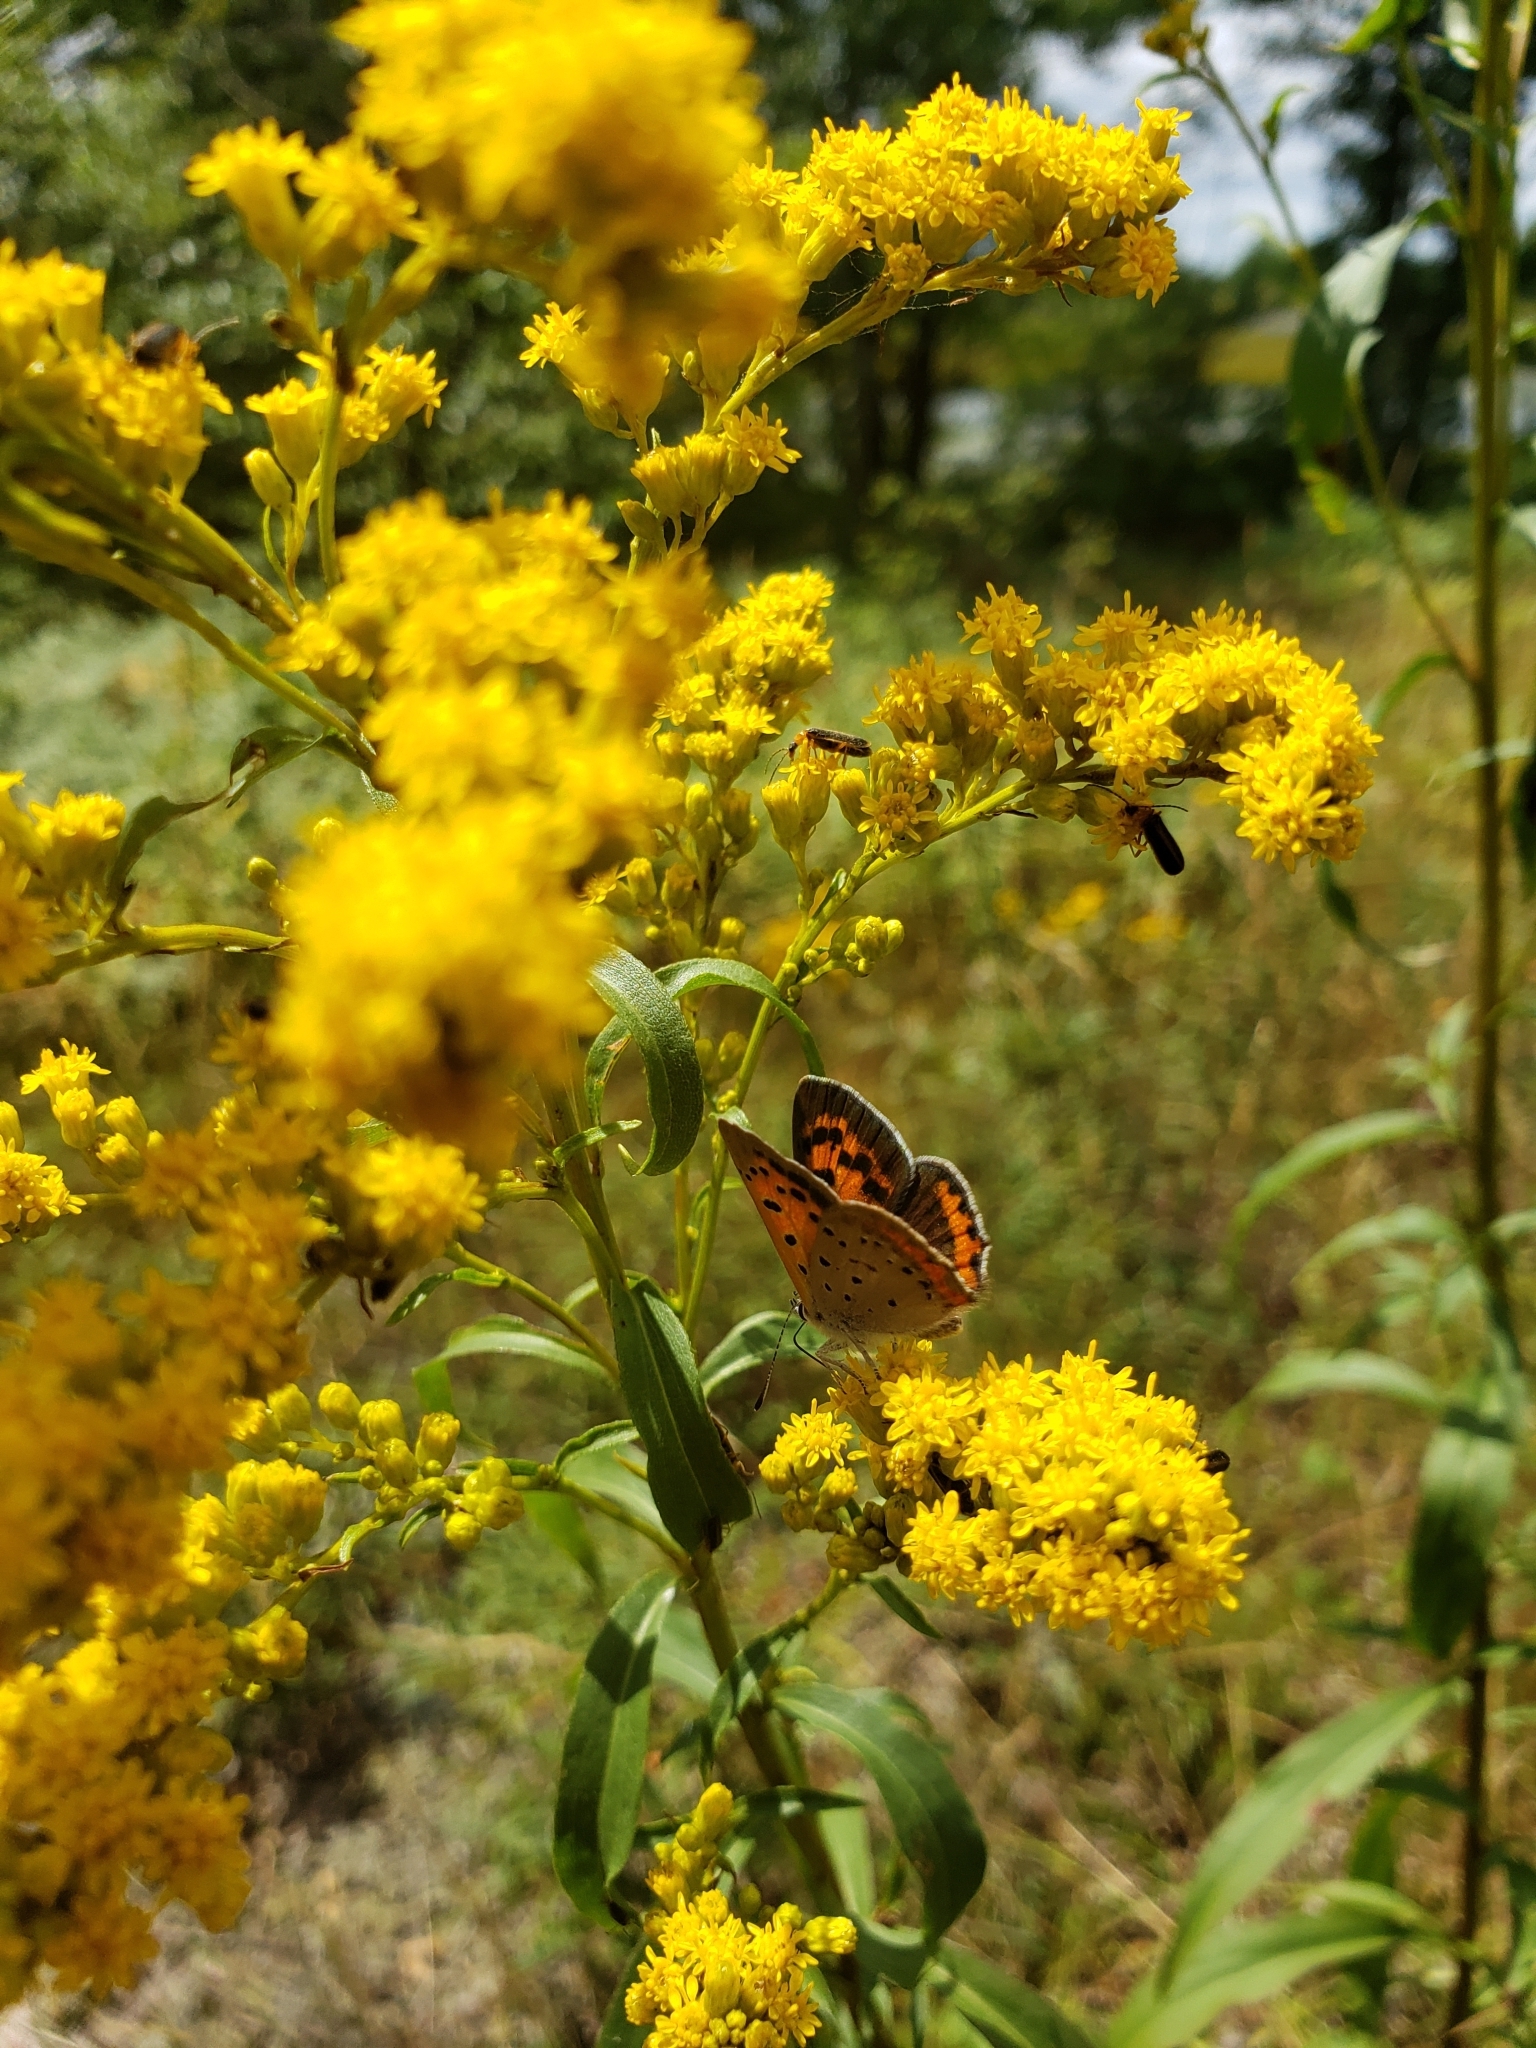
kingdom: Animalia
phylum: Arthropoda
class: Insecta
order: Lepidoptera
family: Lycaenidae
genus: Lycaena
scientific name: Lycaena hypophlaeas
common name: American copper
